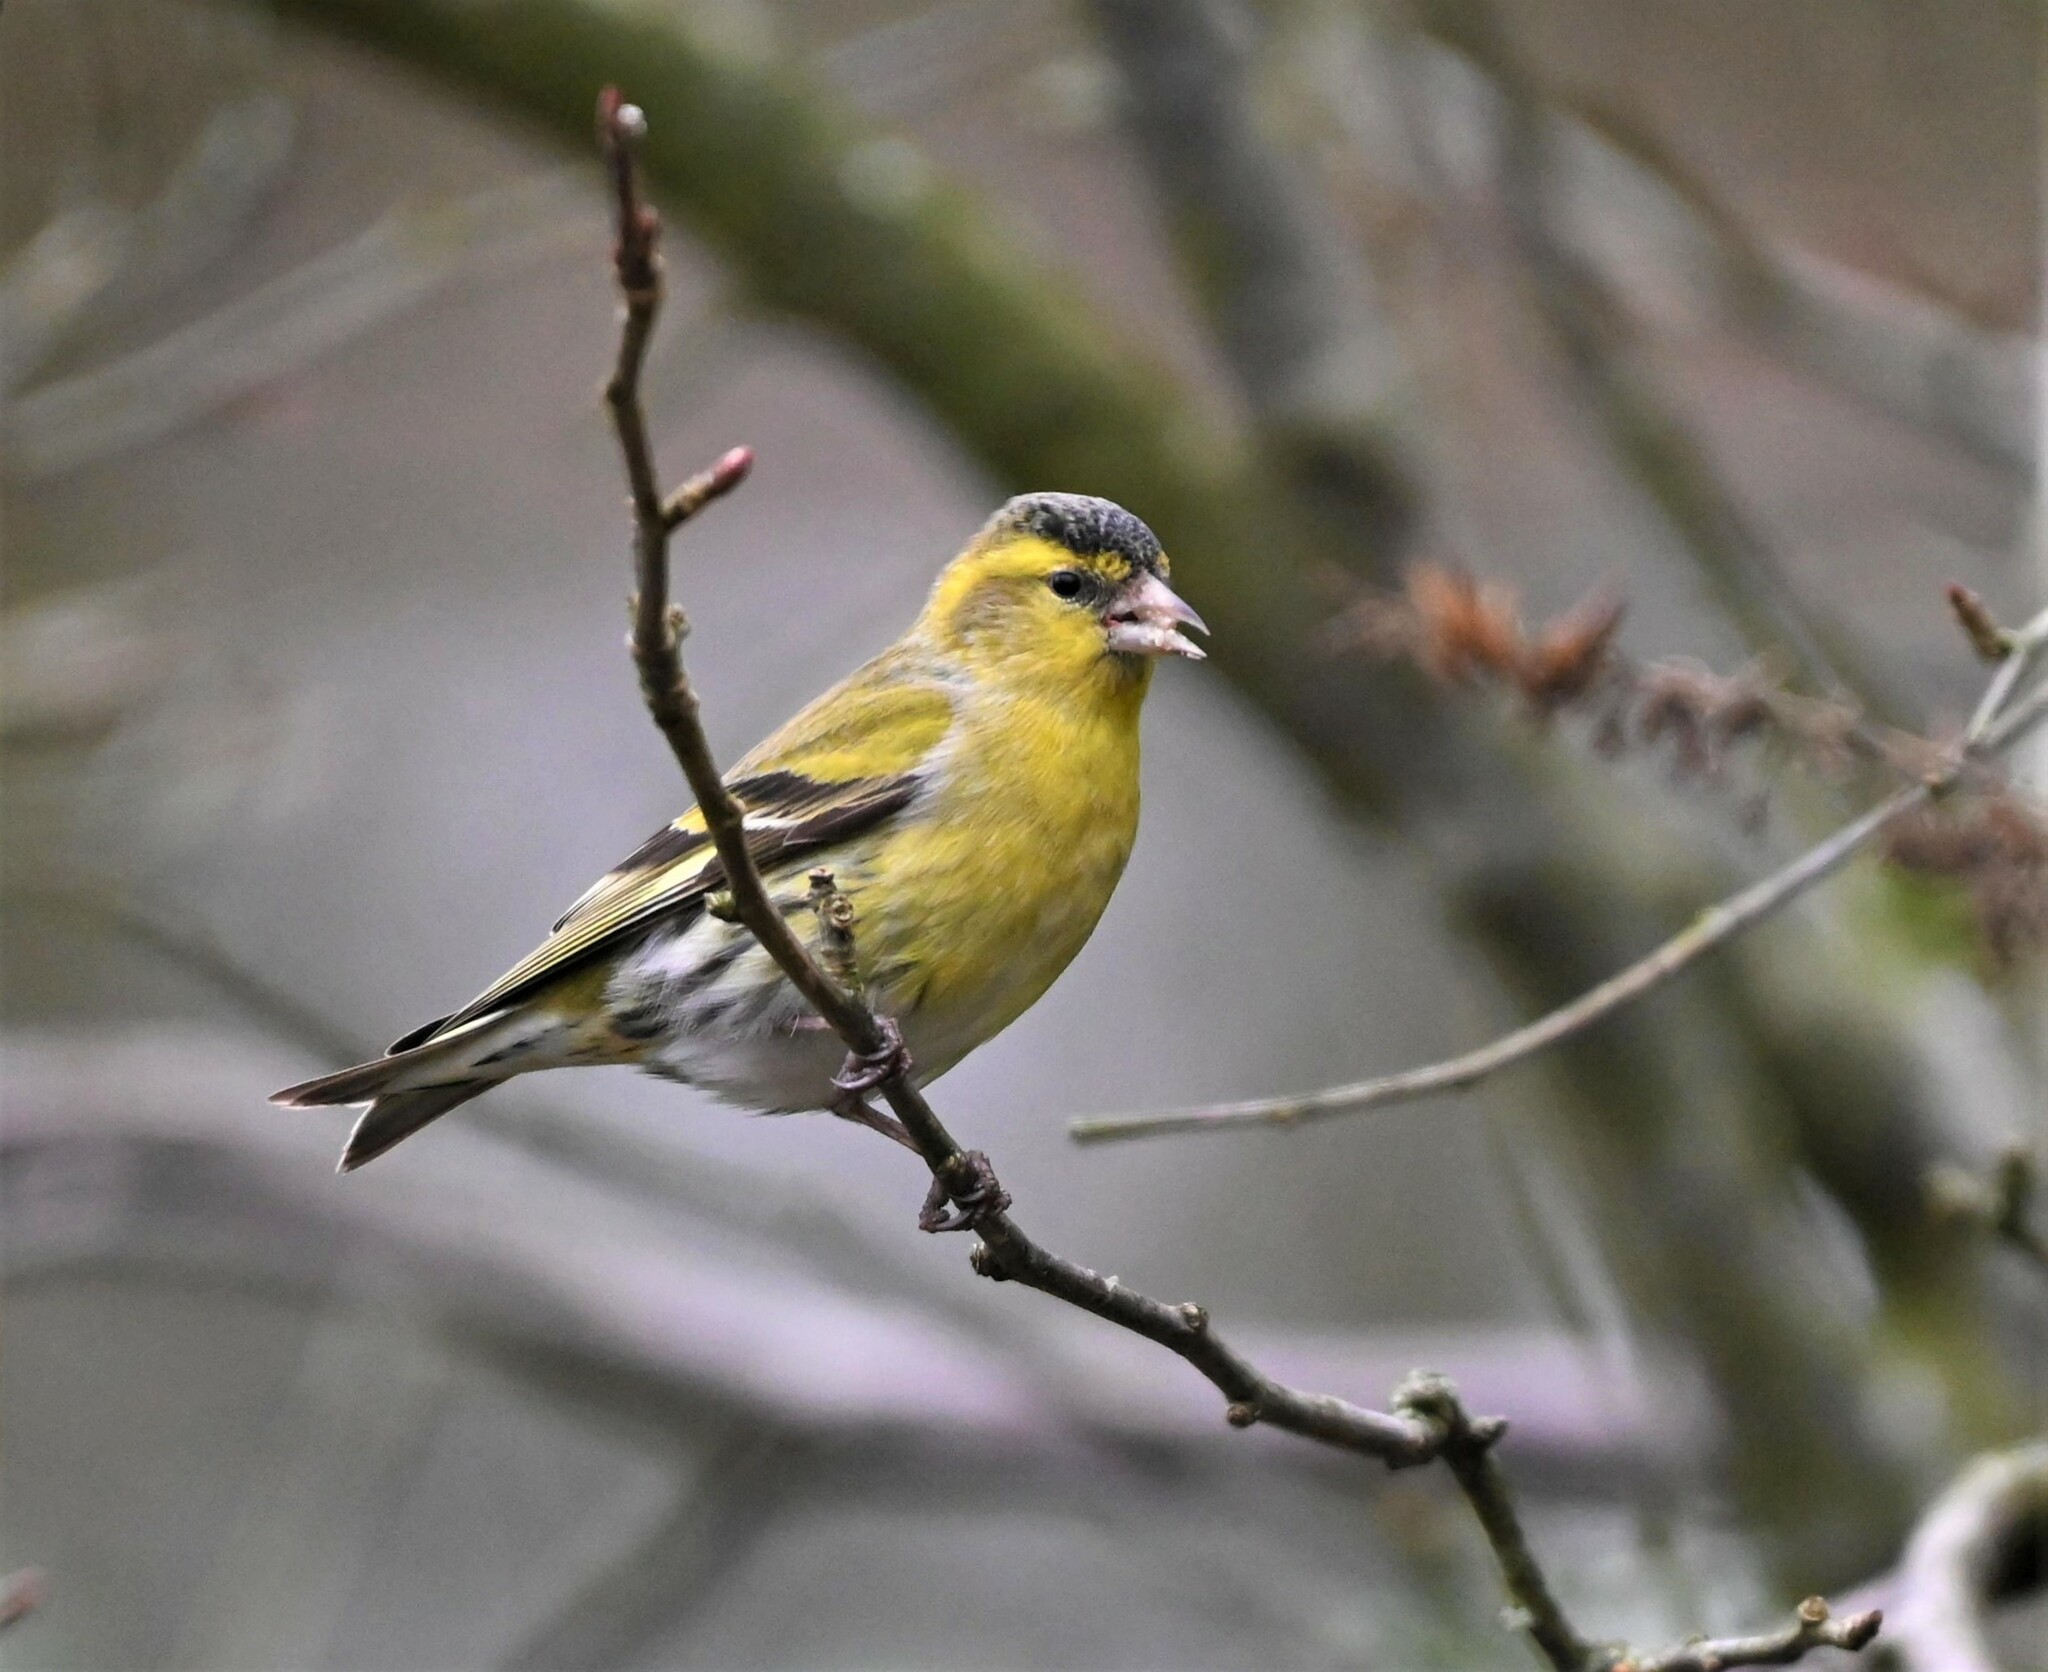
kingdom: Animalia
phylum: Chordata
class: Aves
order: Passeriformes
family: Fringillidae
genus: Spinus
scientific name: Spinus spinus
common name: Eurasian siskin
